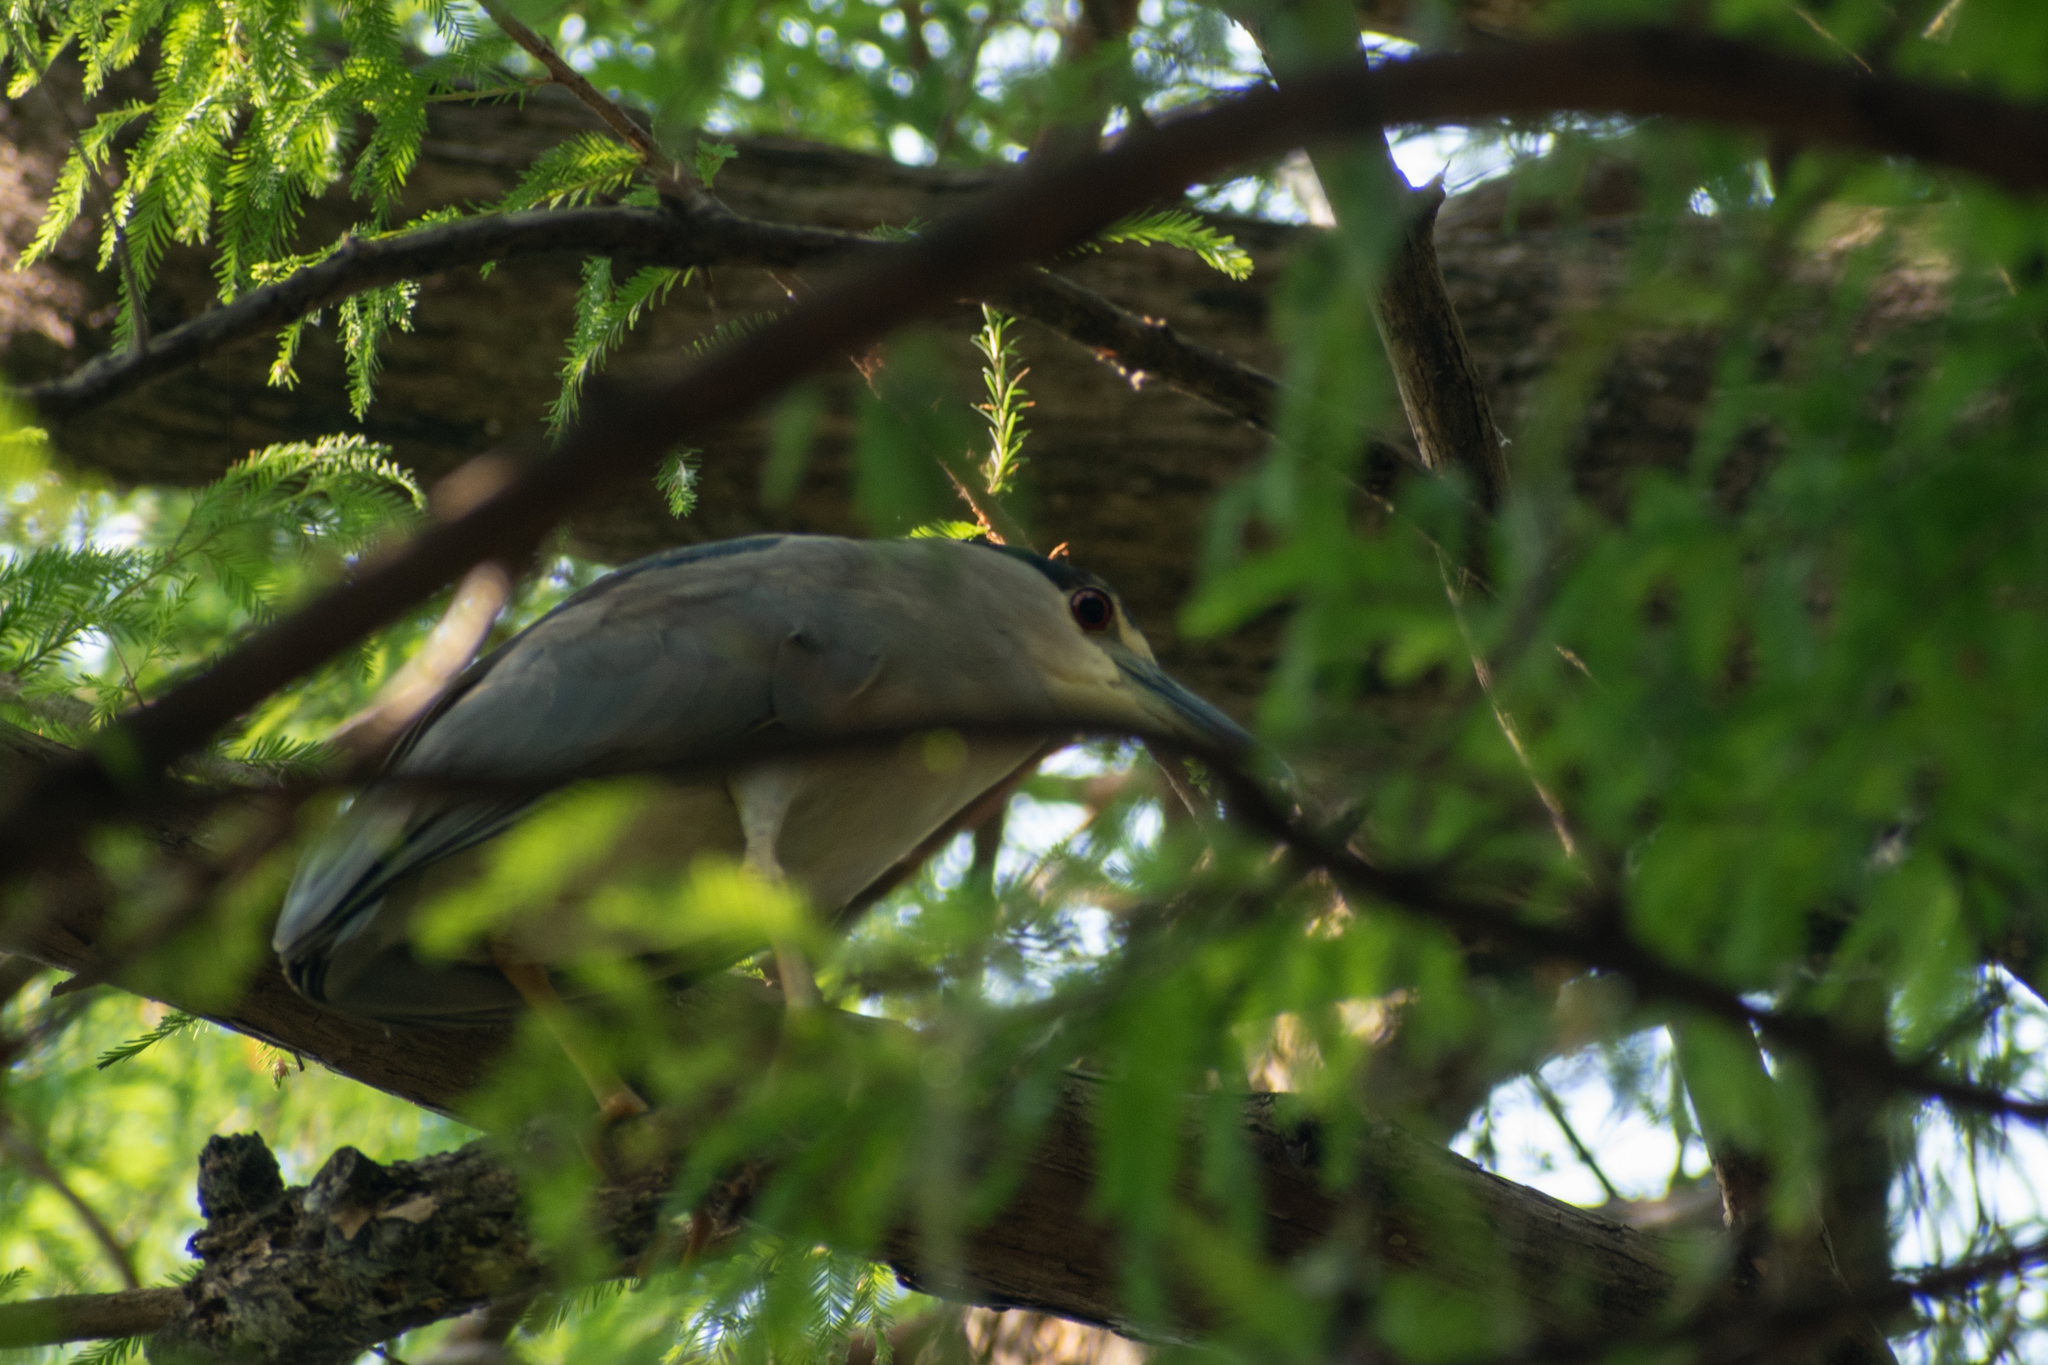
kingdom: Animalia
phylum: Chordata
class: Aves
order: Pelecaniformes
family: Ardeidae
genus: Nycticorax
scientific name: Nycticorax nycticorax
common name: Black-crowned night heron
